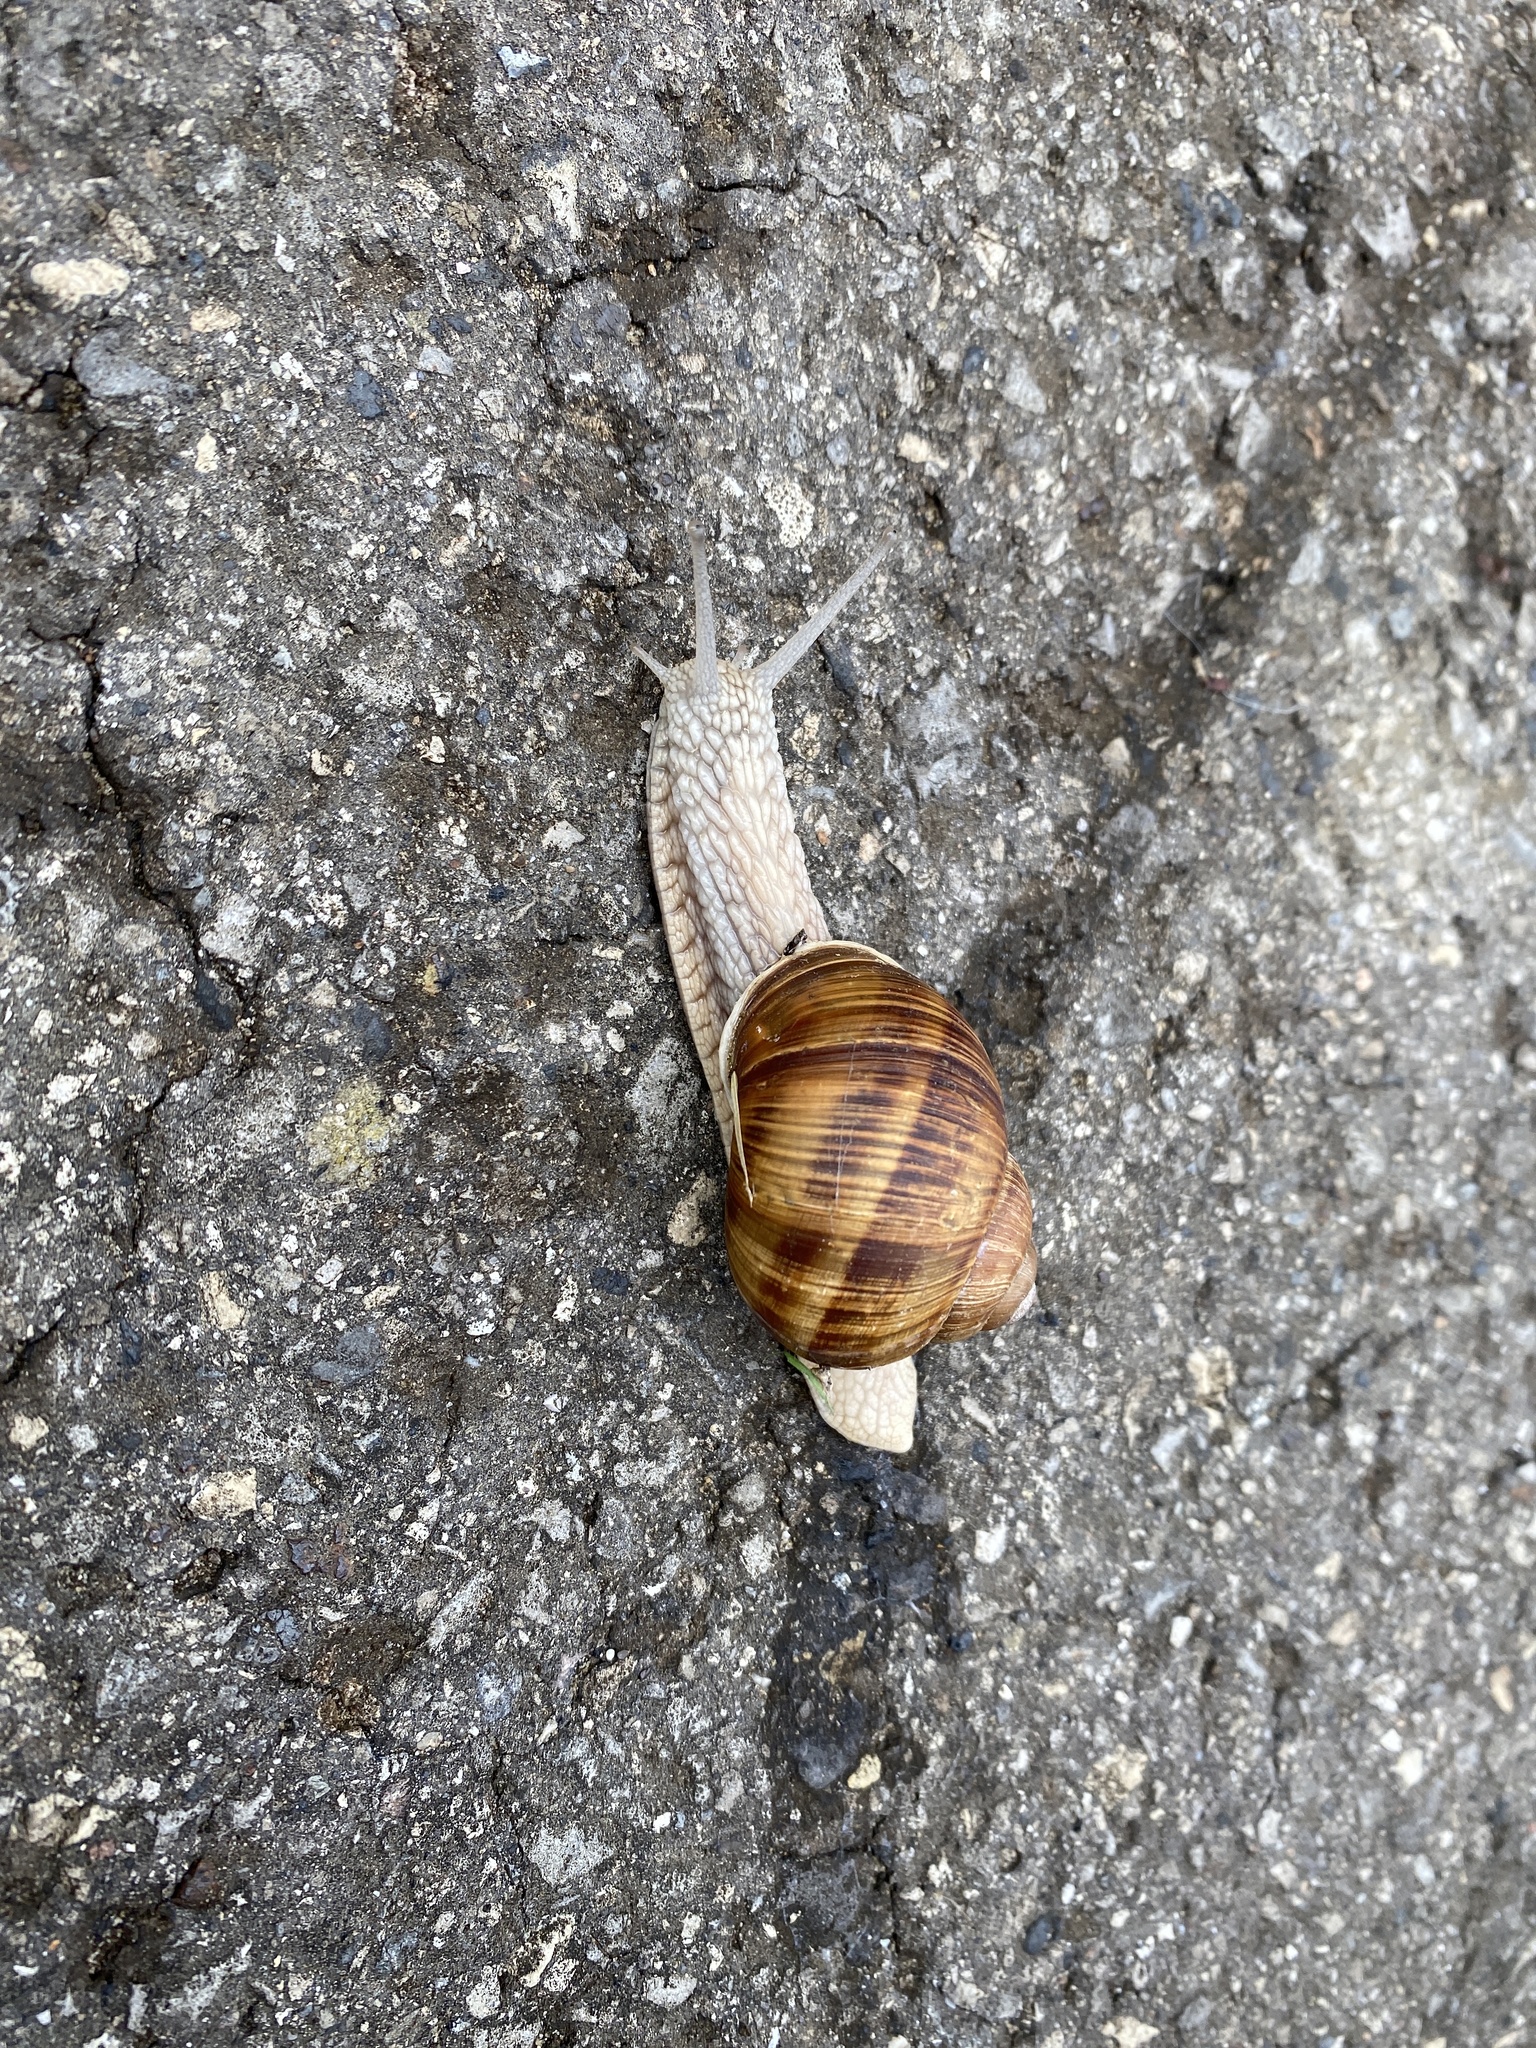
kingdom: Animalia
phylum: Mollusca
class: Gastropoda
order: Stylommatophora
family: Helicidae
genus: Helix
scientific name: Helix pomatia
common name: Roman snail
